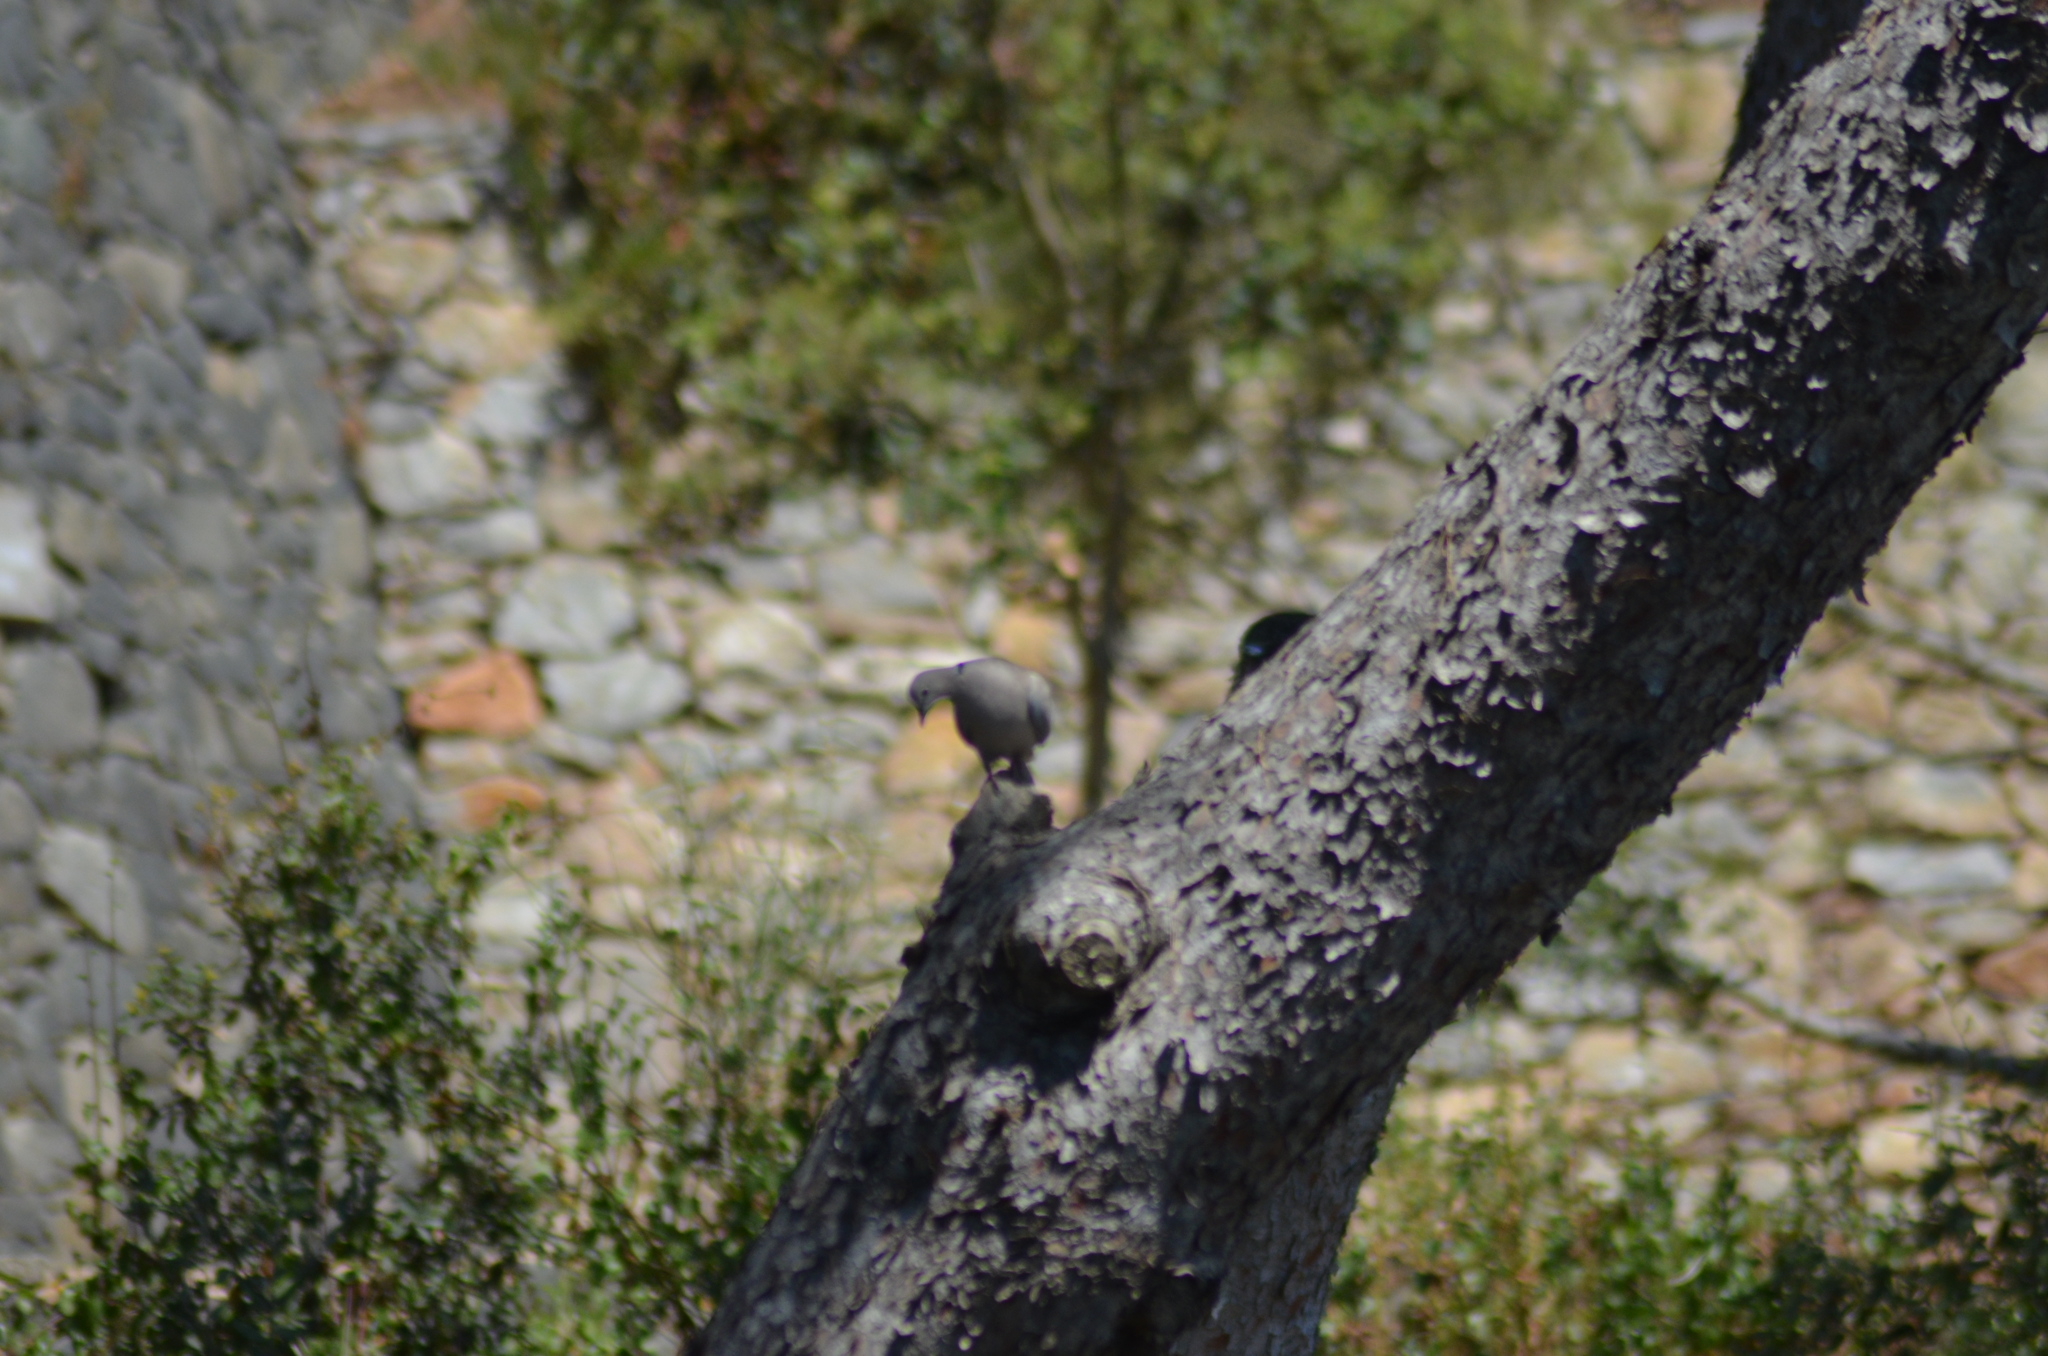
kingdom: Animalia
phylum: Chordata
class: Aves
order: Columbiformes
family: Columbidae
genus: Streptopelia
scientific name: Streptopelia decaocto
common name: Eurasian collared dove
